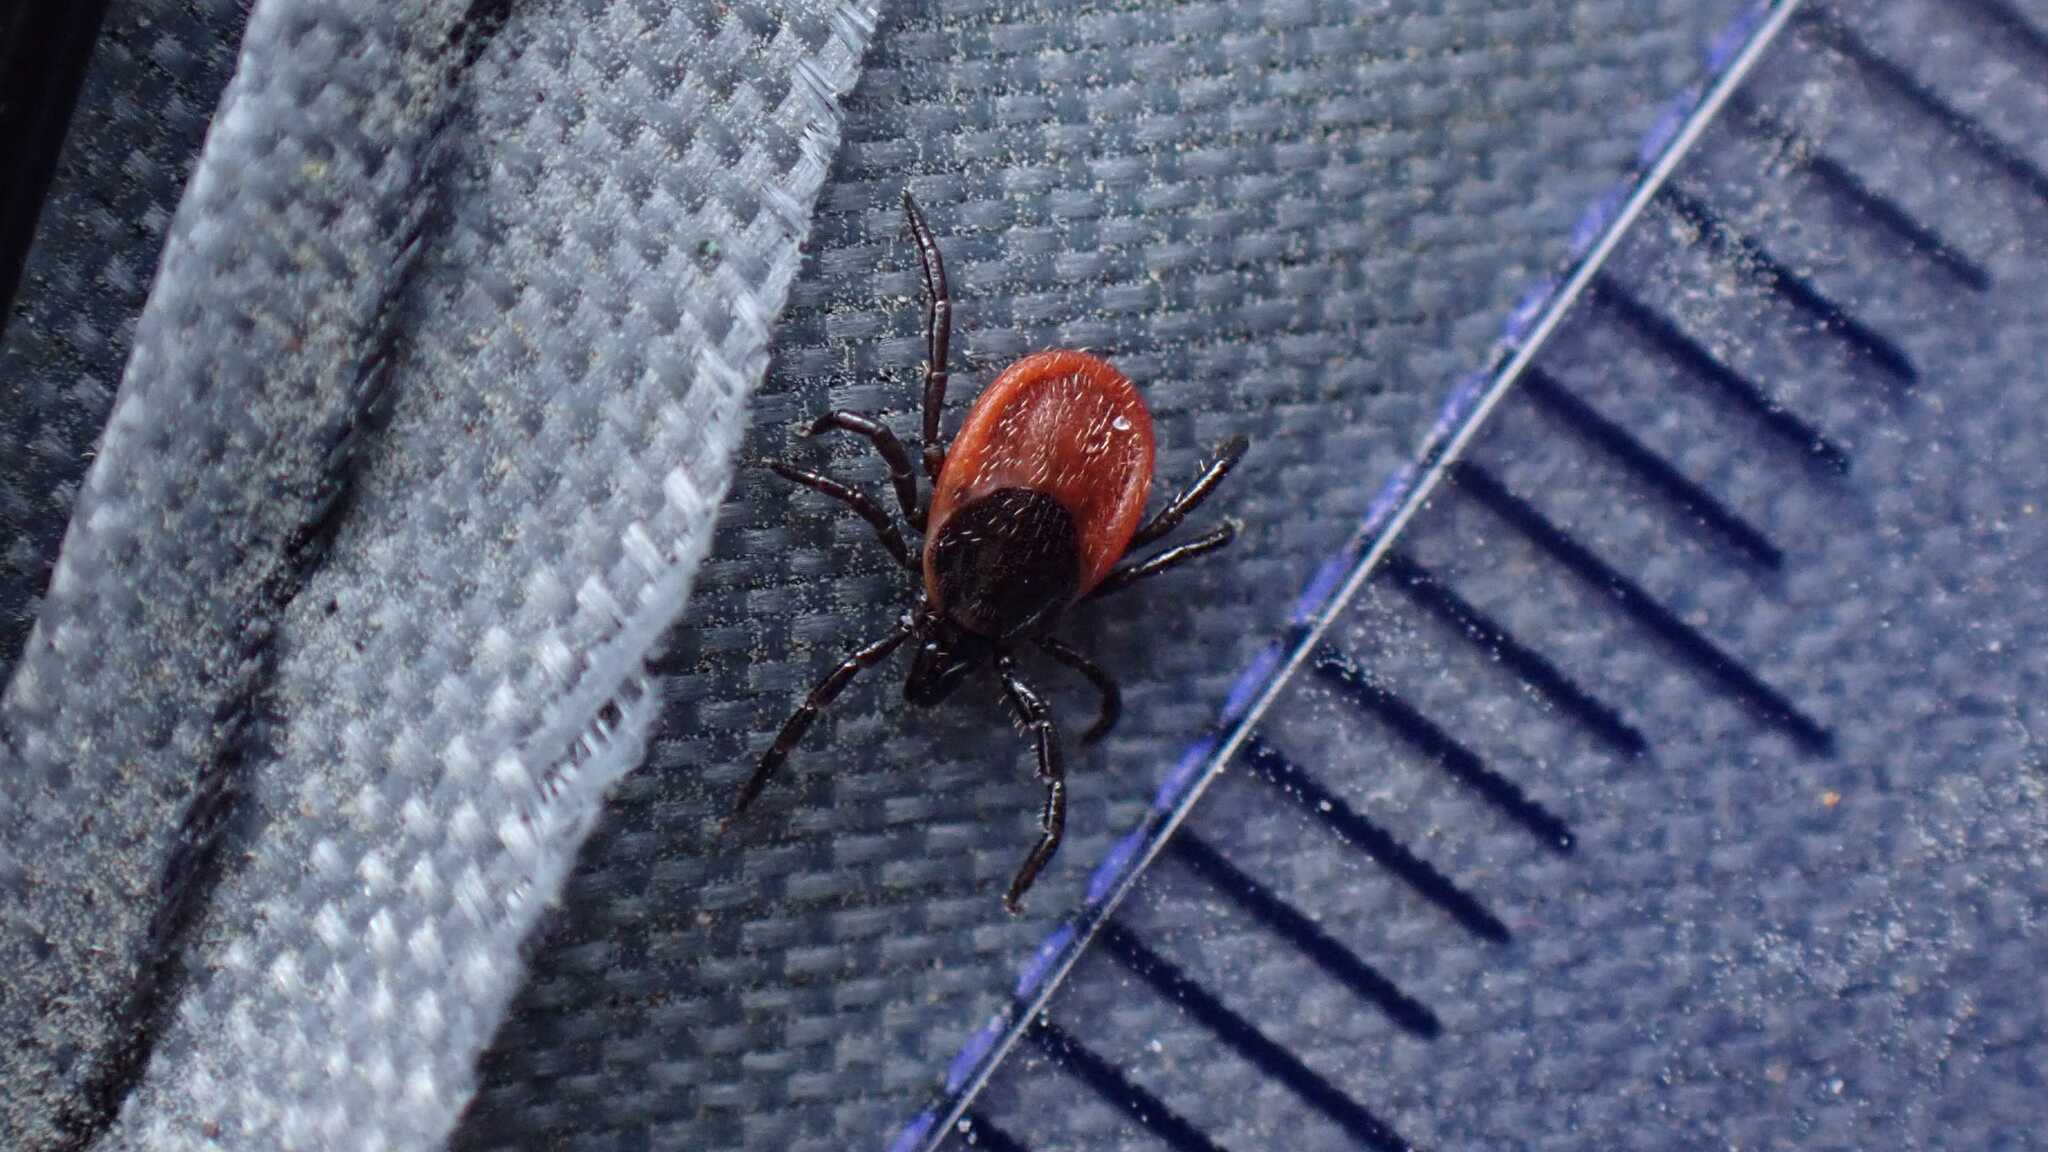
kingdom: Animalia
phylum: Arthropoda
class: Arachnida
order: Ixodida
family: Ixodidae
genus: Ixodes
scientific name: Ixodes ricinus
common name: Castor bean tick
